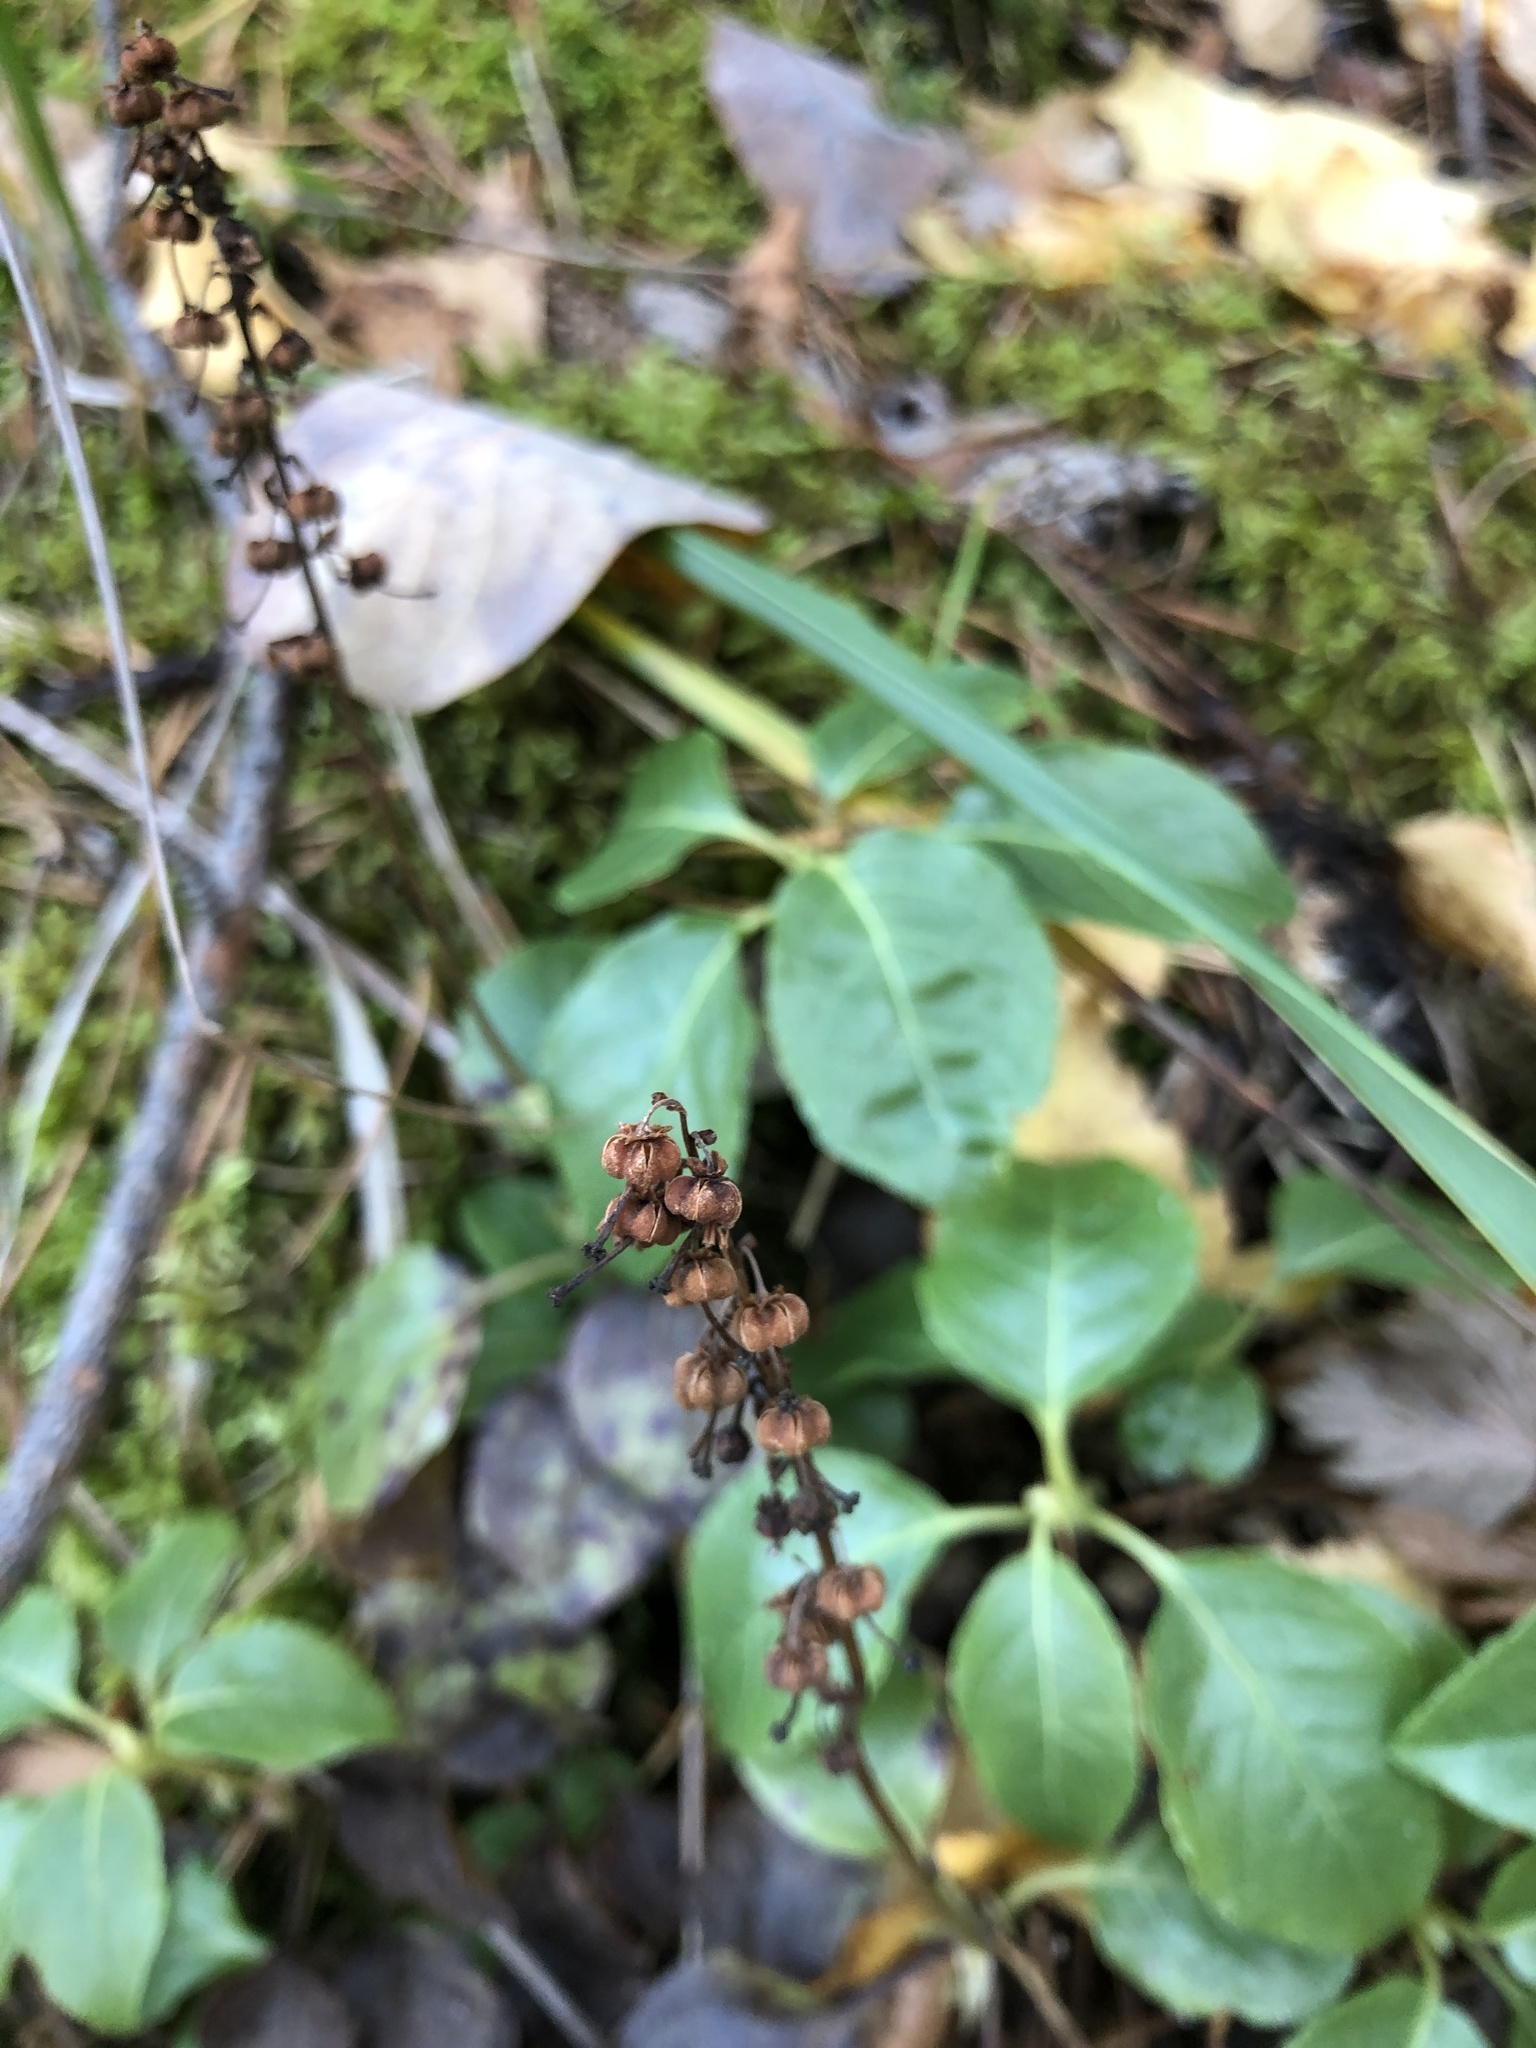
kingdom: Plantae
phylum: Tracheophyta
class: Magnoliopsida
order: Ericales
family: Ericaceae
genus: Orthilia
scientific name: Orthilia secunda
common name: One-sided orthilia
